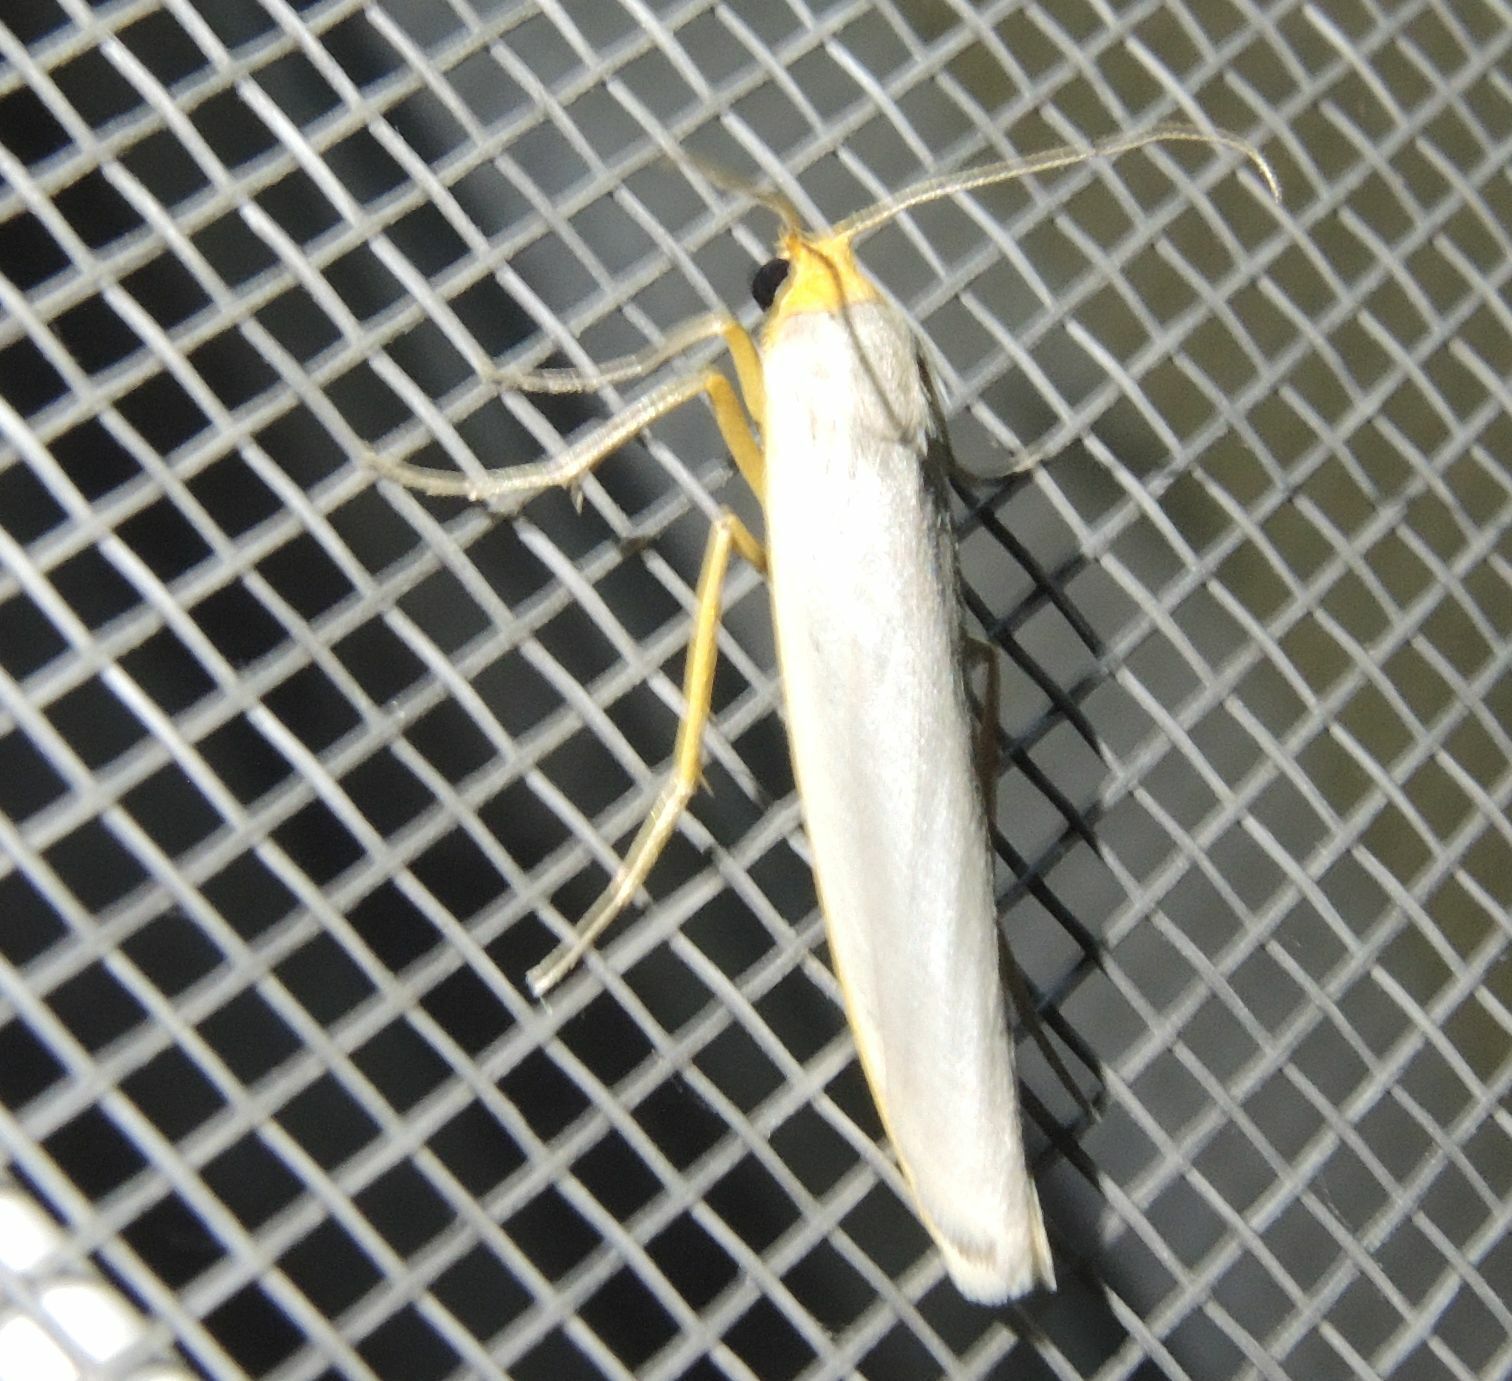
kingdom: Animalia
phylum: Arthropoda
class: Insecta
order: Lepidoptera
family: Erebidae
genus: Eilema
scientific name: Eilema caniola
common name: Hoary footman
